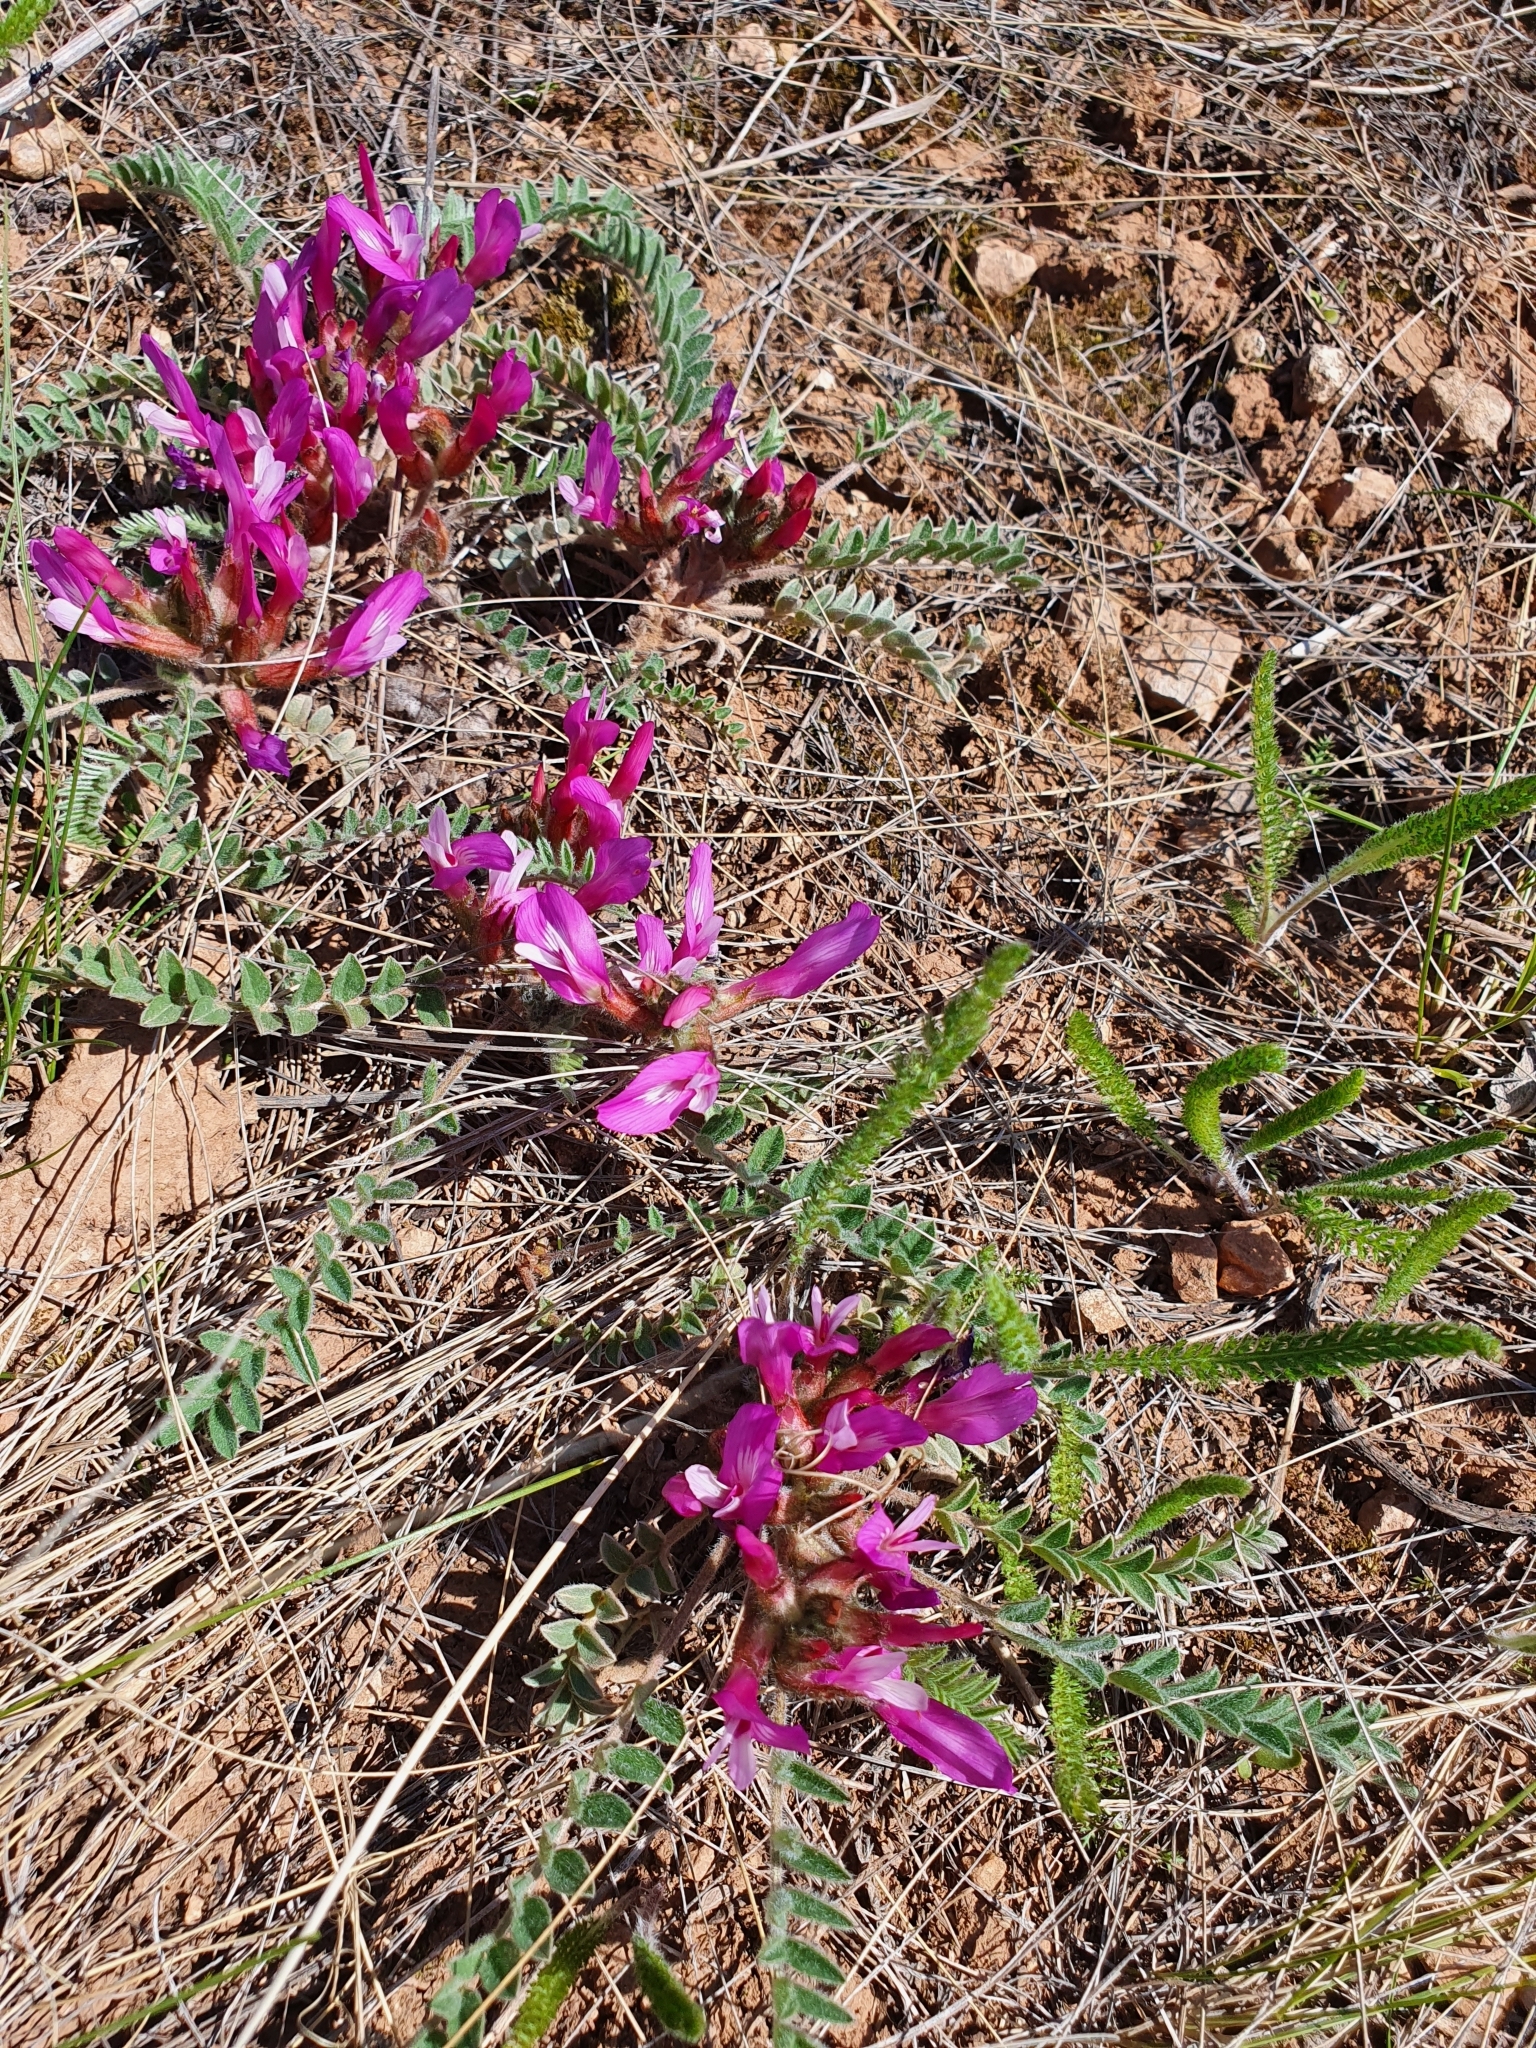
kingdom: Plantae
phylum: Tracheophyta
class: Magnoliopsida
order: Fabales
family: Fabaceae
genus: Astragalus
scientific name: Astragalus testiculatus
